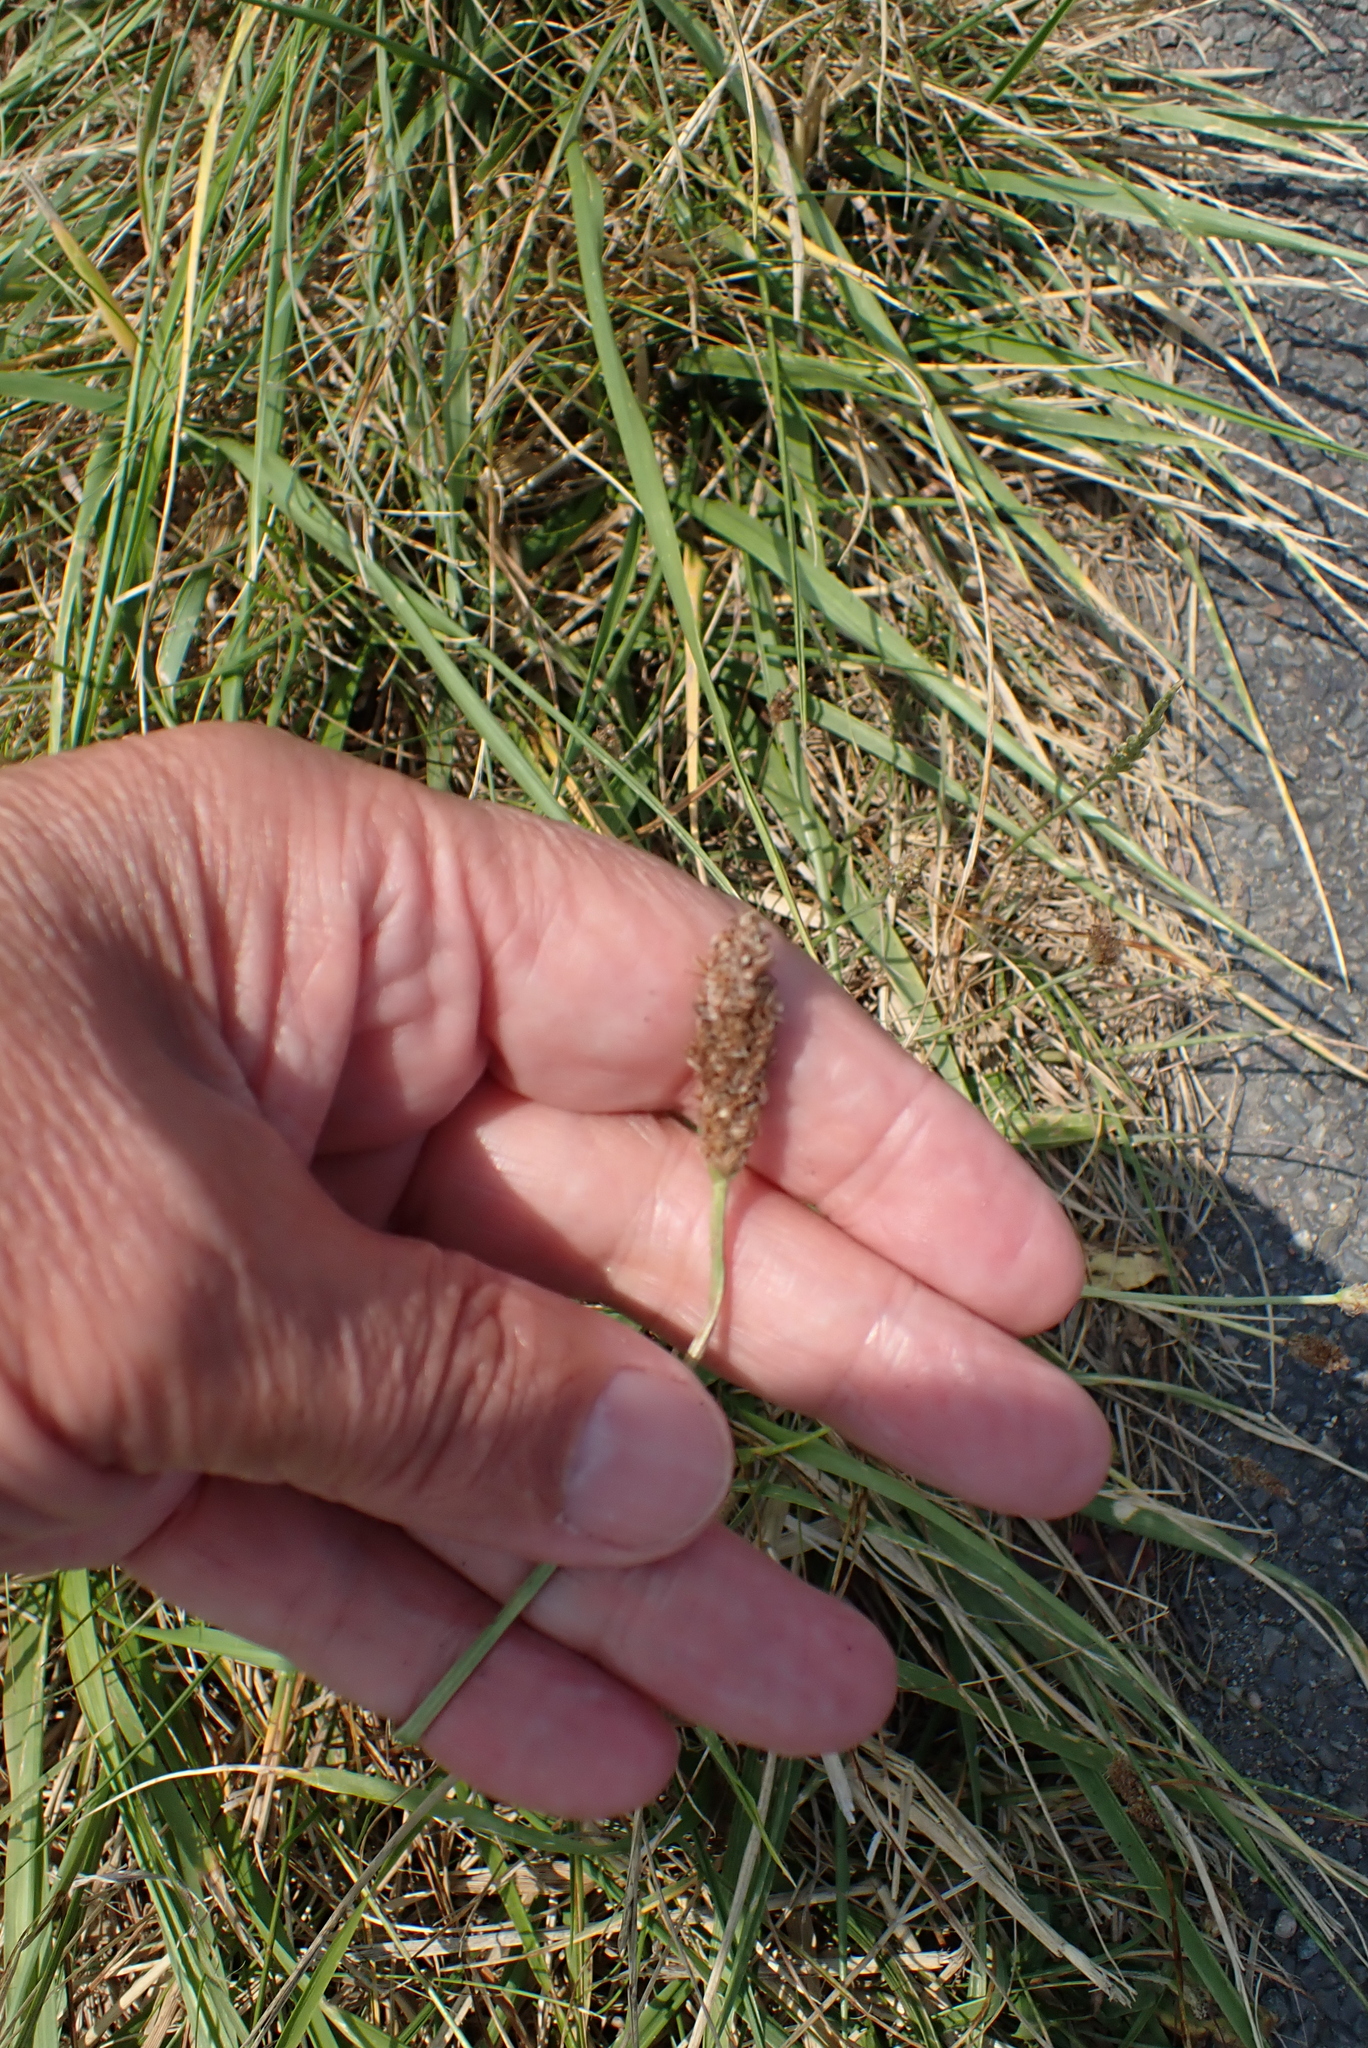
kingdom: Plantae
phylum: Tracheophyta
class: Magnoliopsida
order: Lamiales
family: Plantaginaceae
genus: Plantago
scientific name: Plantago lanceolata
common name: Ribwort plantain
